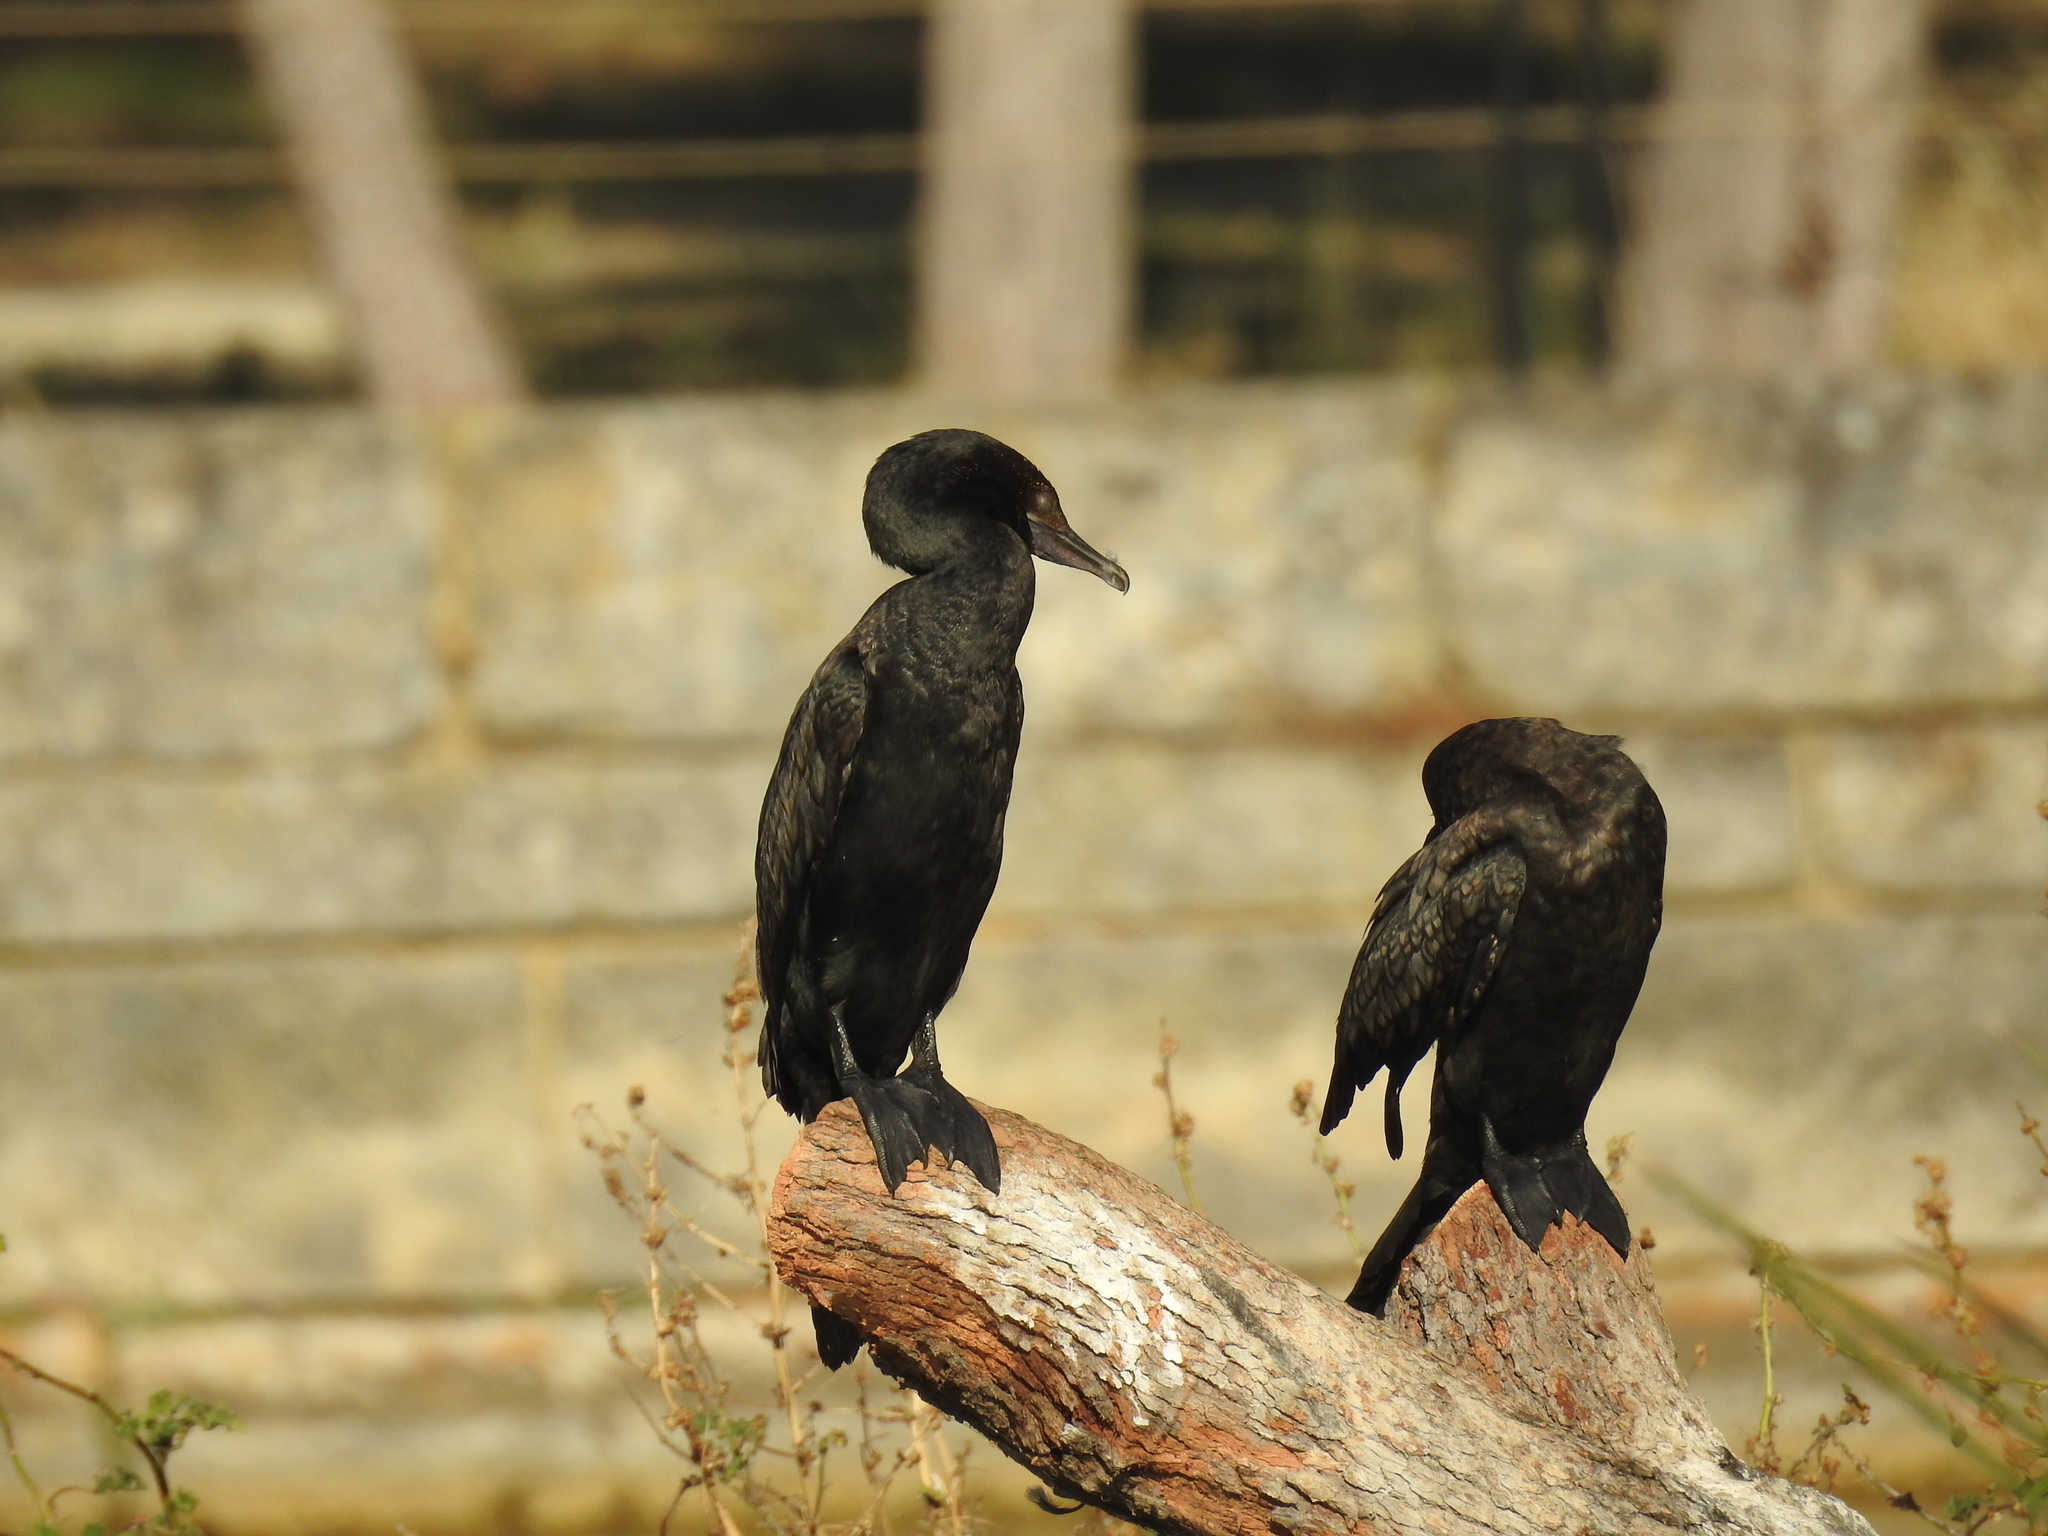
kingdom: Animalia
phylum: Chordata
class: Aves
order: Suliformes
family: Phalacrocoracidae
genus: Phalacrocorax
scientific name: Phalacrocorax sulcirostris
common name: Little black cormorant
